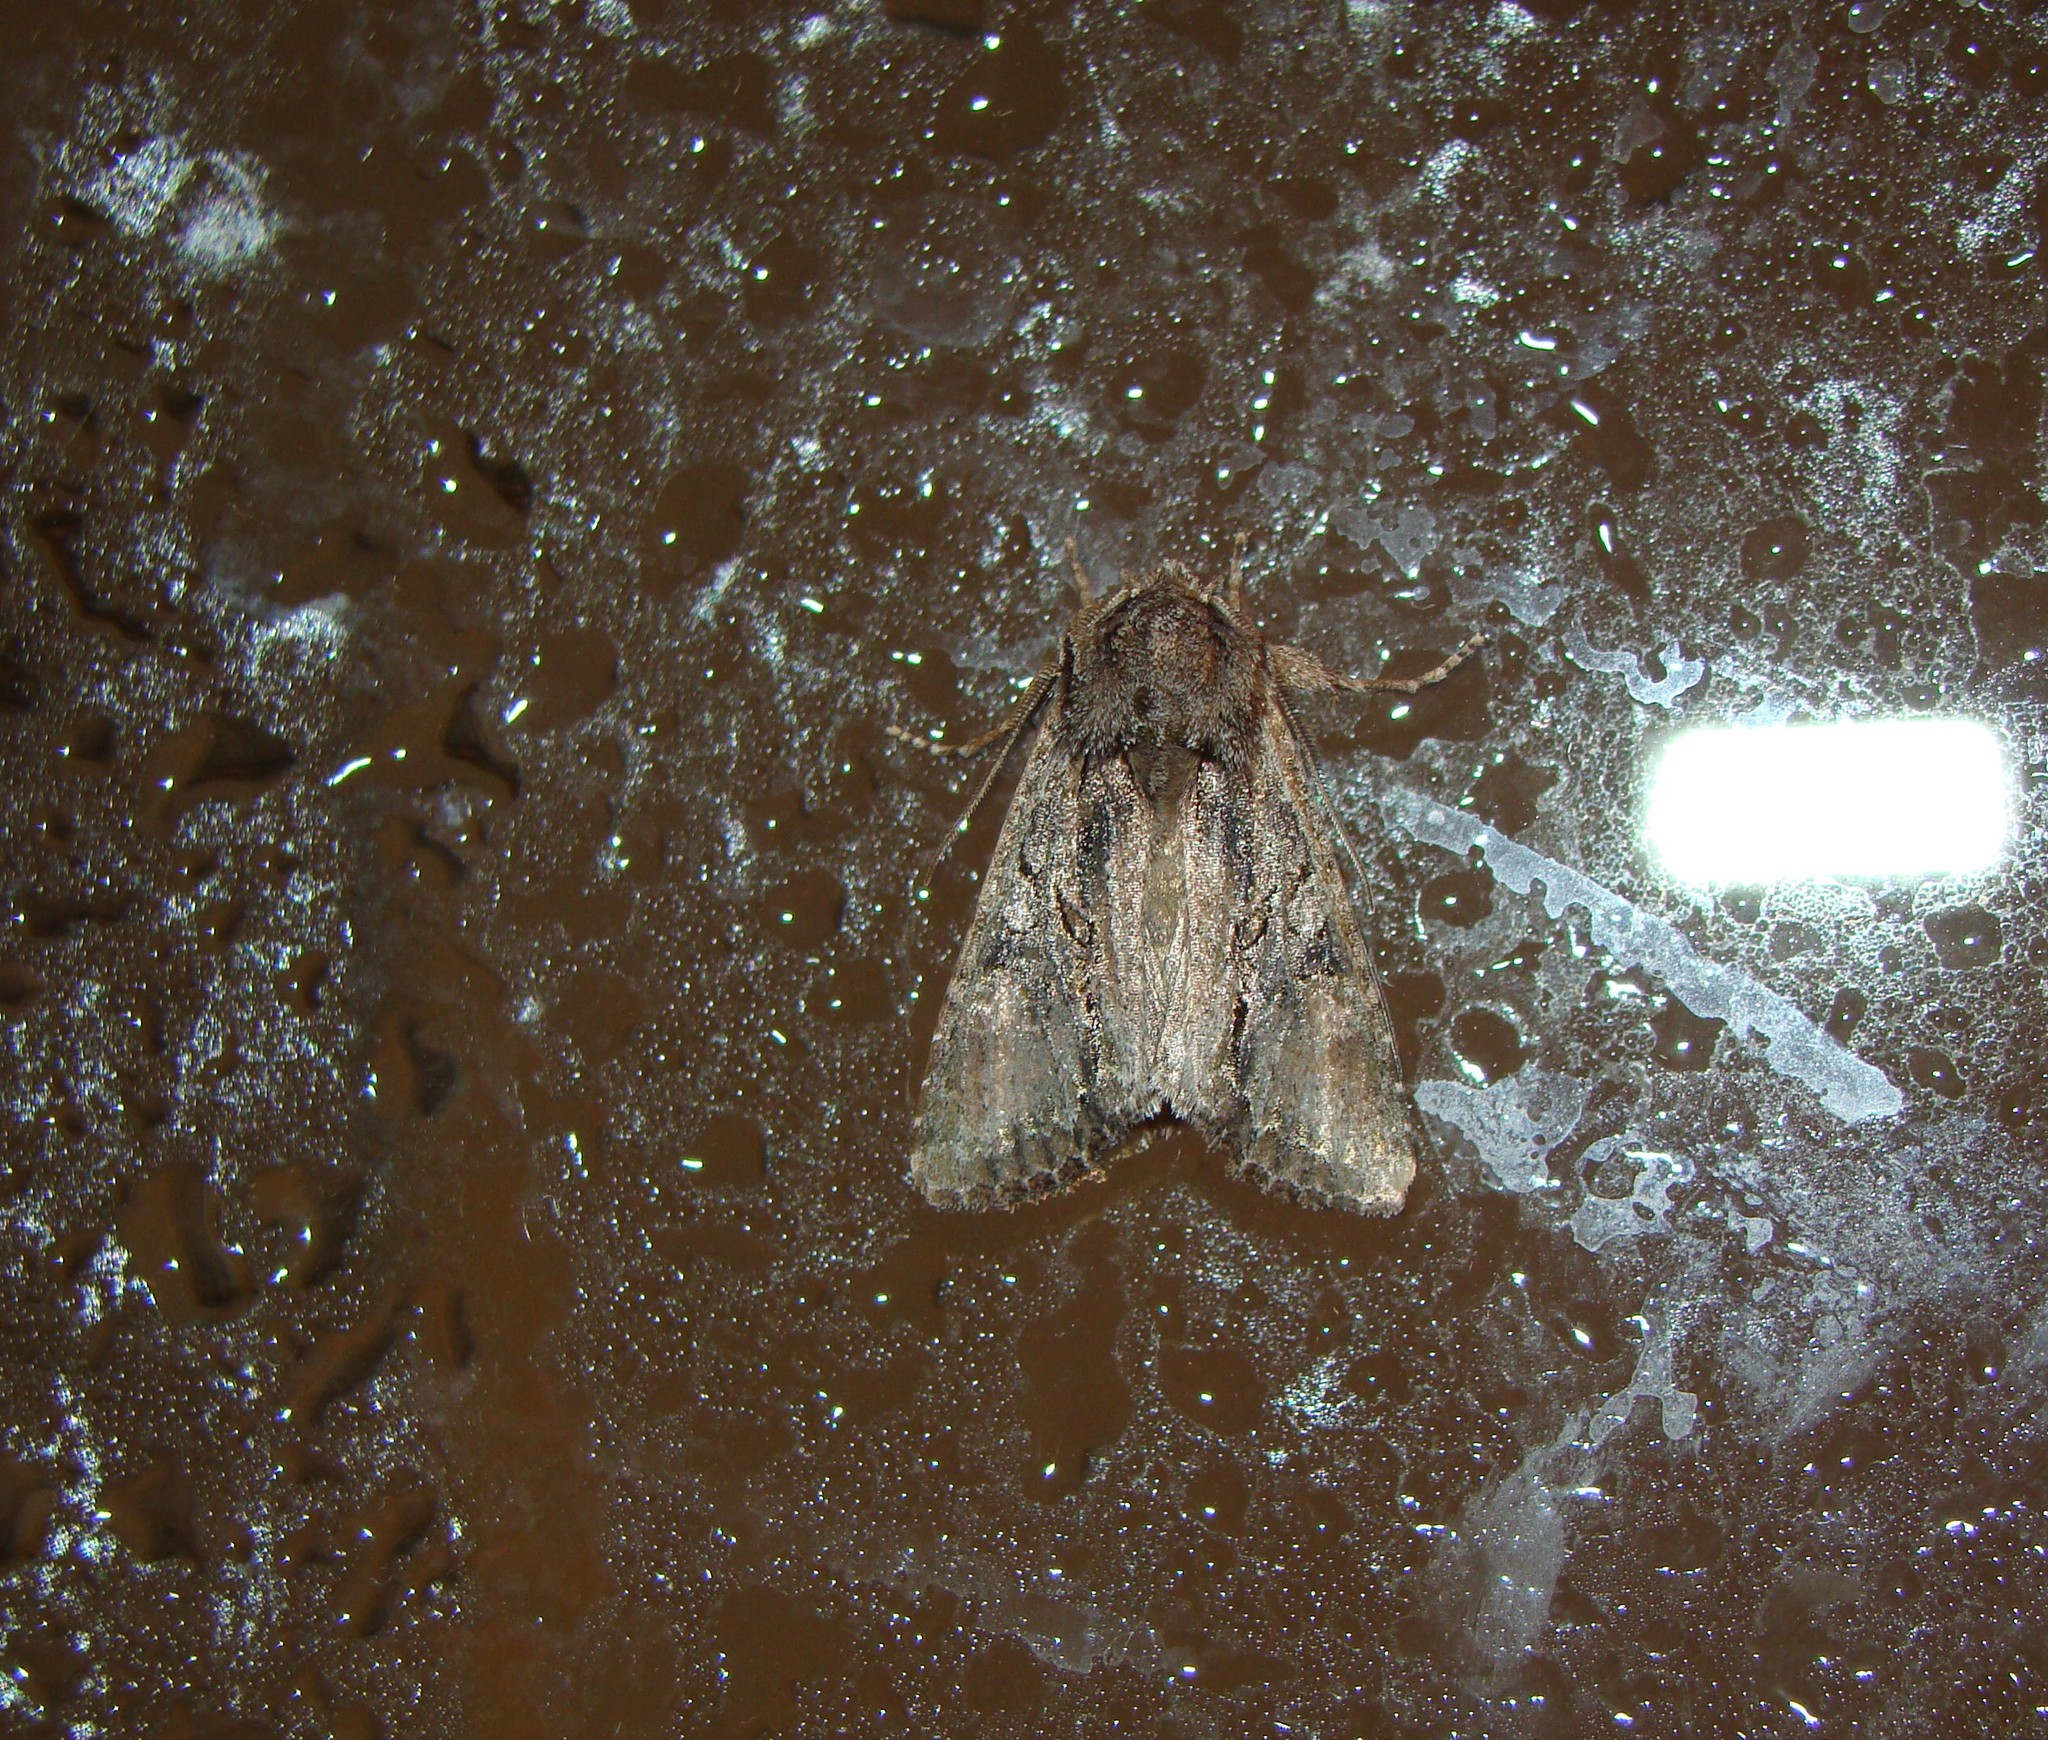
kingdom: Animalia
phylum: Arthropoda
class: Insecta
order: Lepidoptera
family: Noctuidae
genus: Ichneutica
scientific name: Ichneutica mutans
